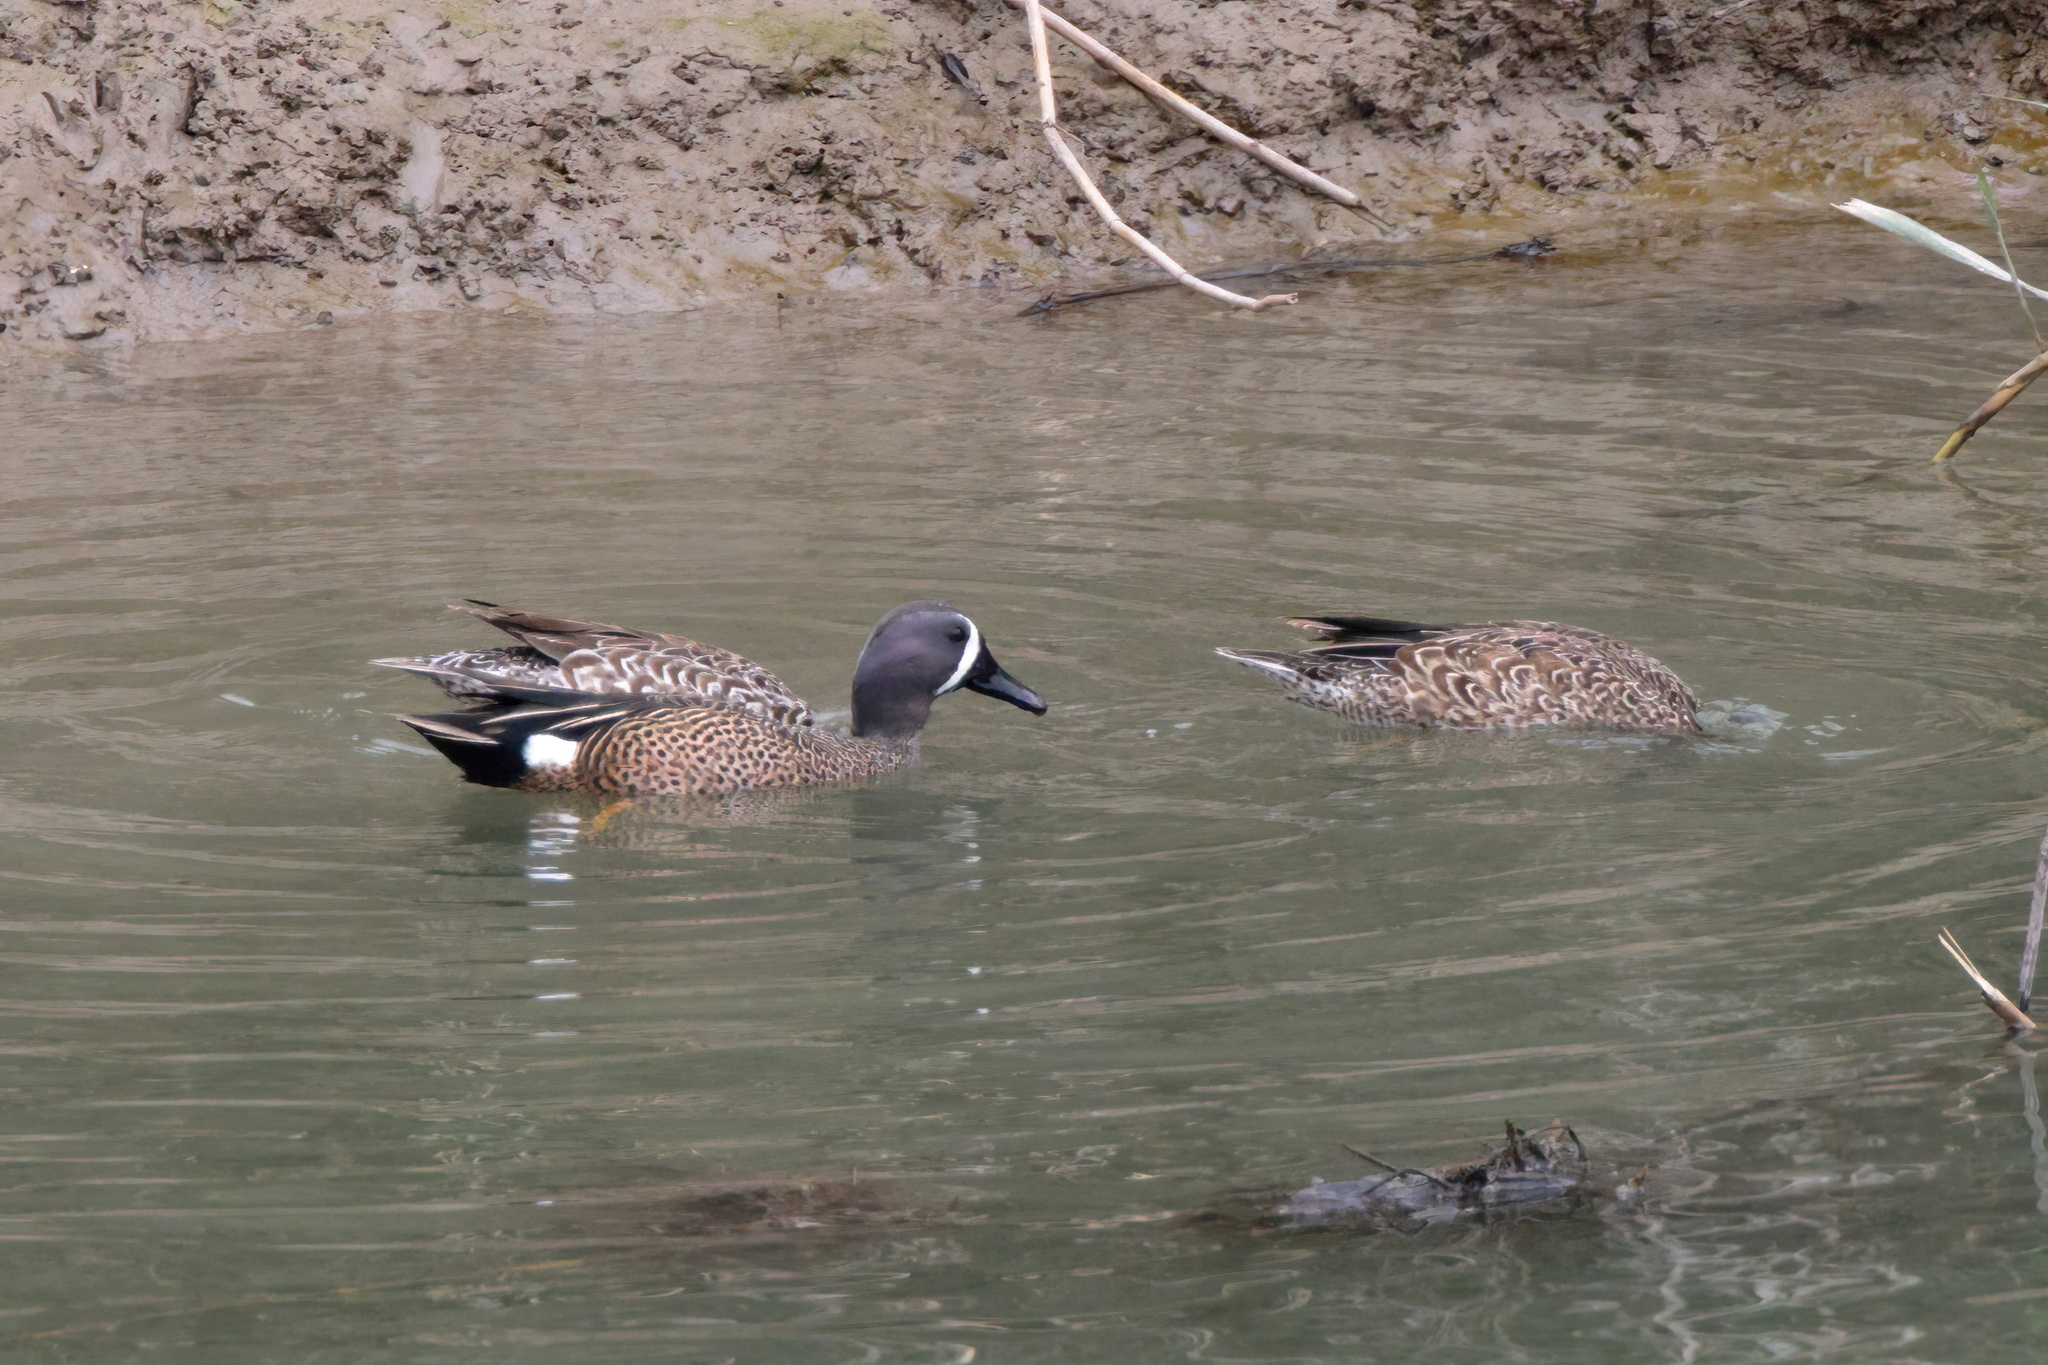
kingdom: Animalia
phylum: Chordata
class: Aves
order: Anseriformes
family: Anatidae
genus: Spatula
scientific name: Spatula discors
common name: Blue-winged teal
